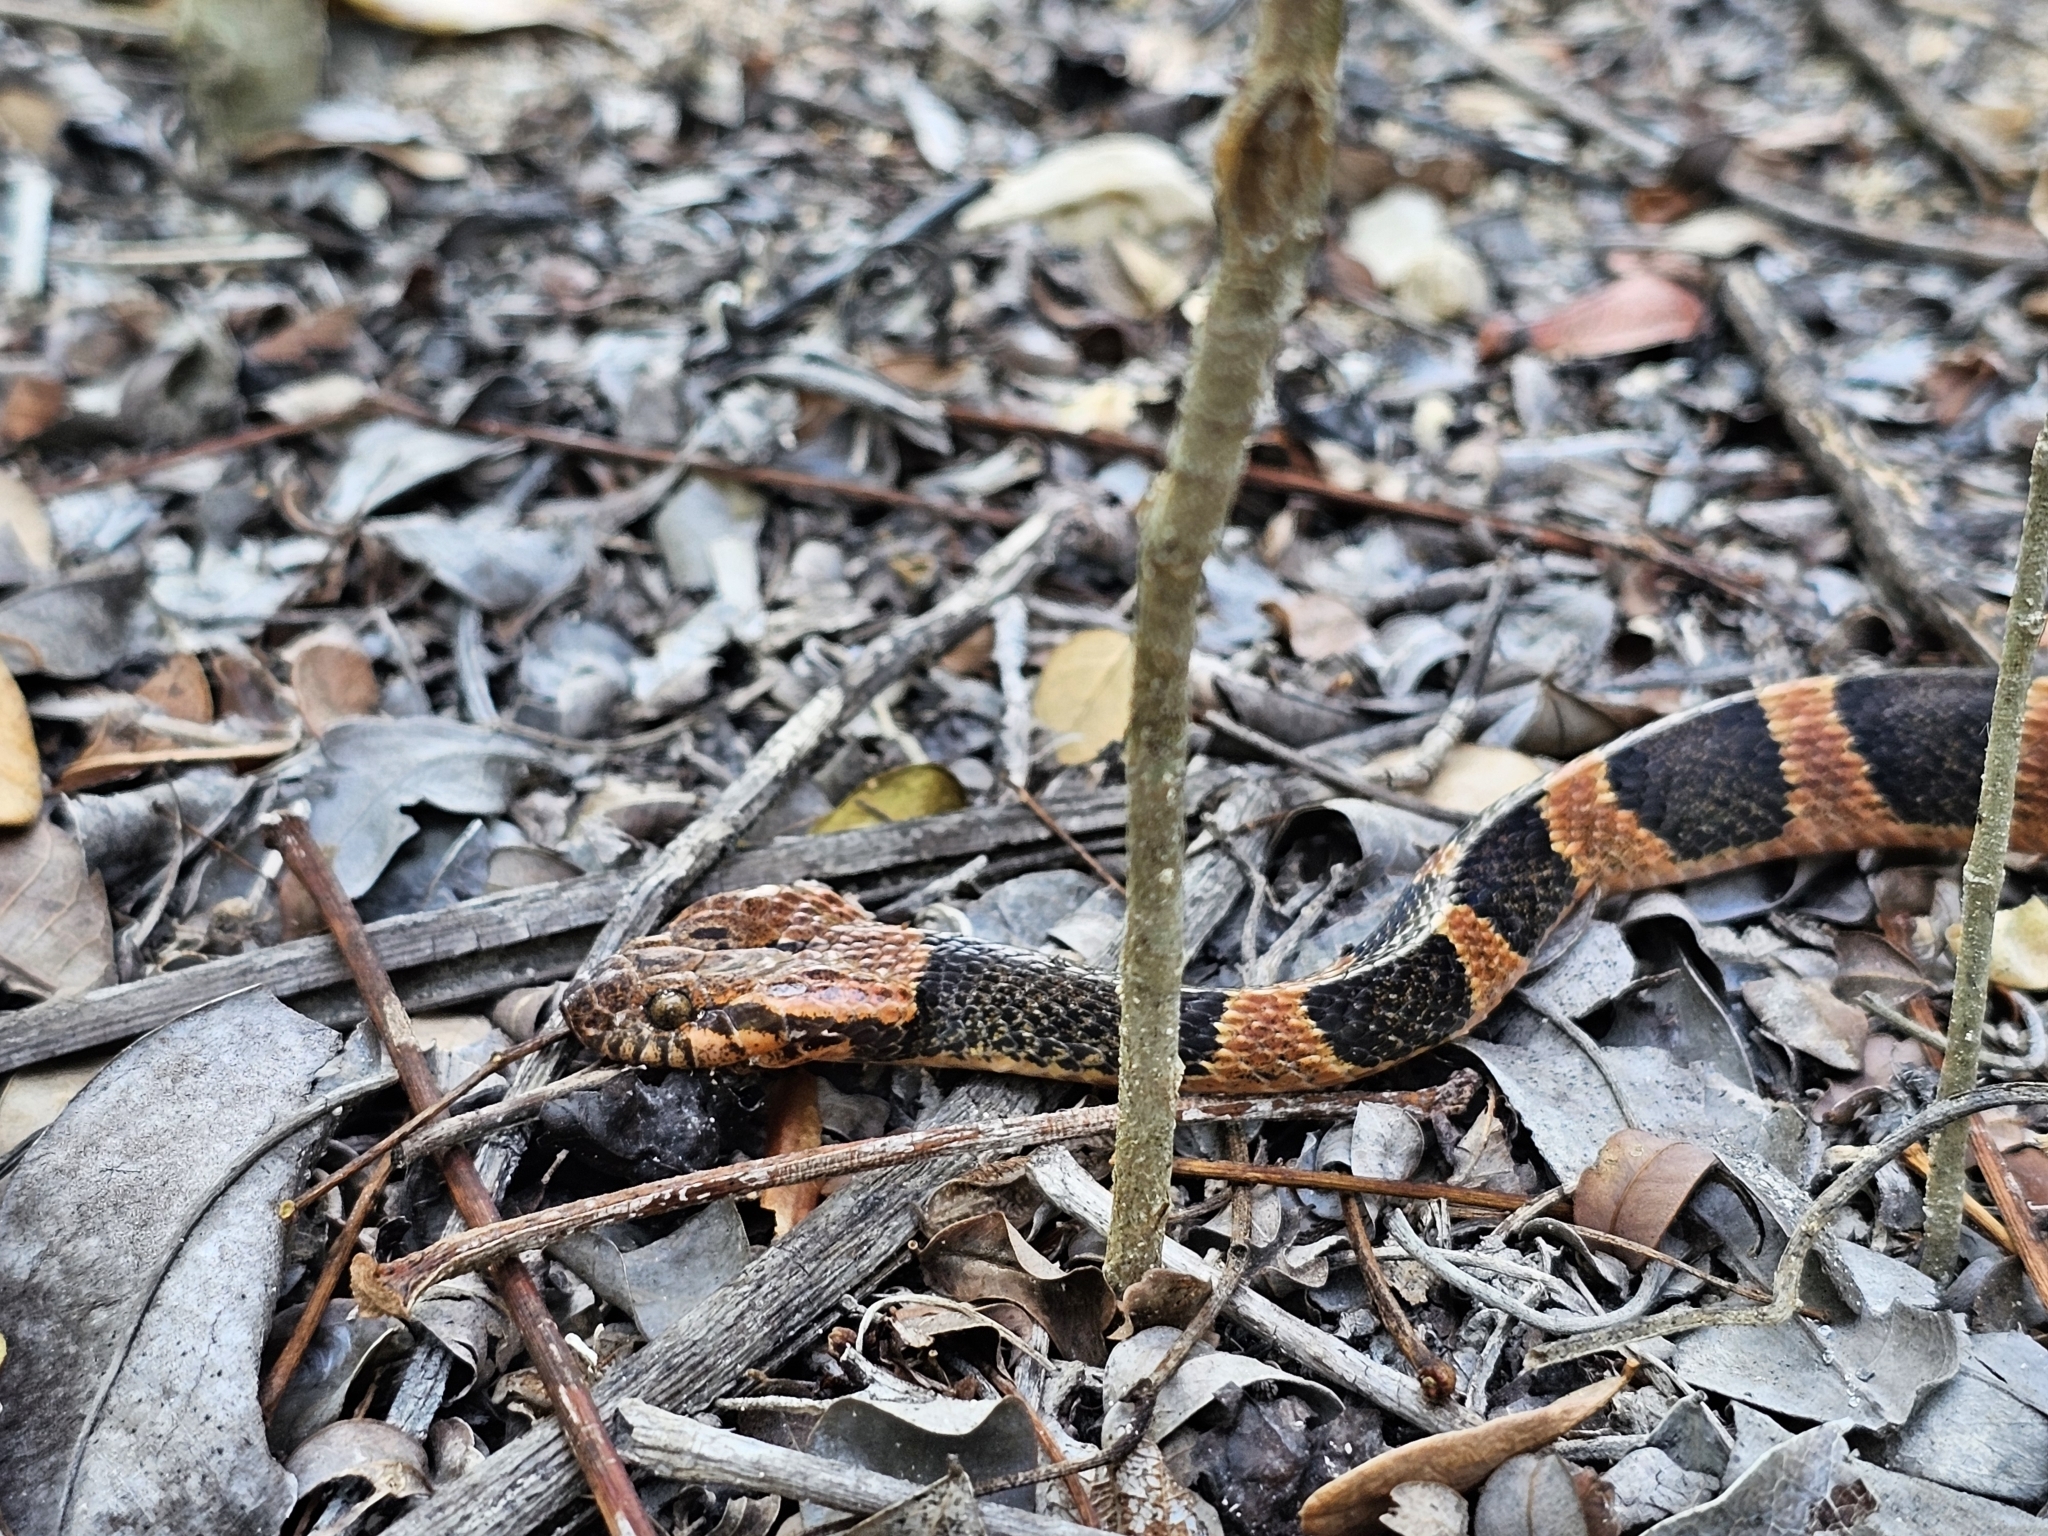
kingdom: Animalia
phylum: Chordata
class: Squamata
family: Colubridae
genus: Leptodeira
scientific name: Leptodeira frenata
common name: Rainforest cat-eyed snake
